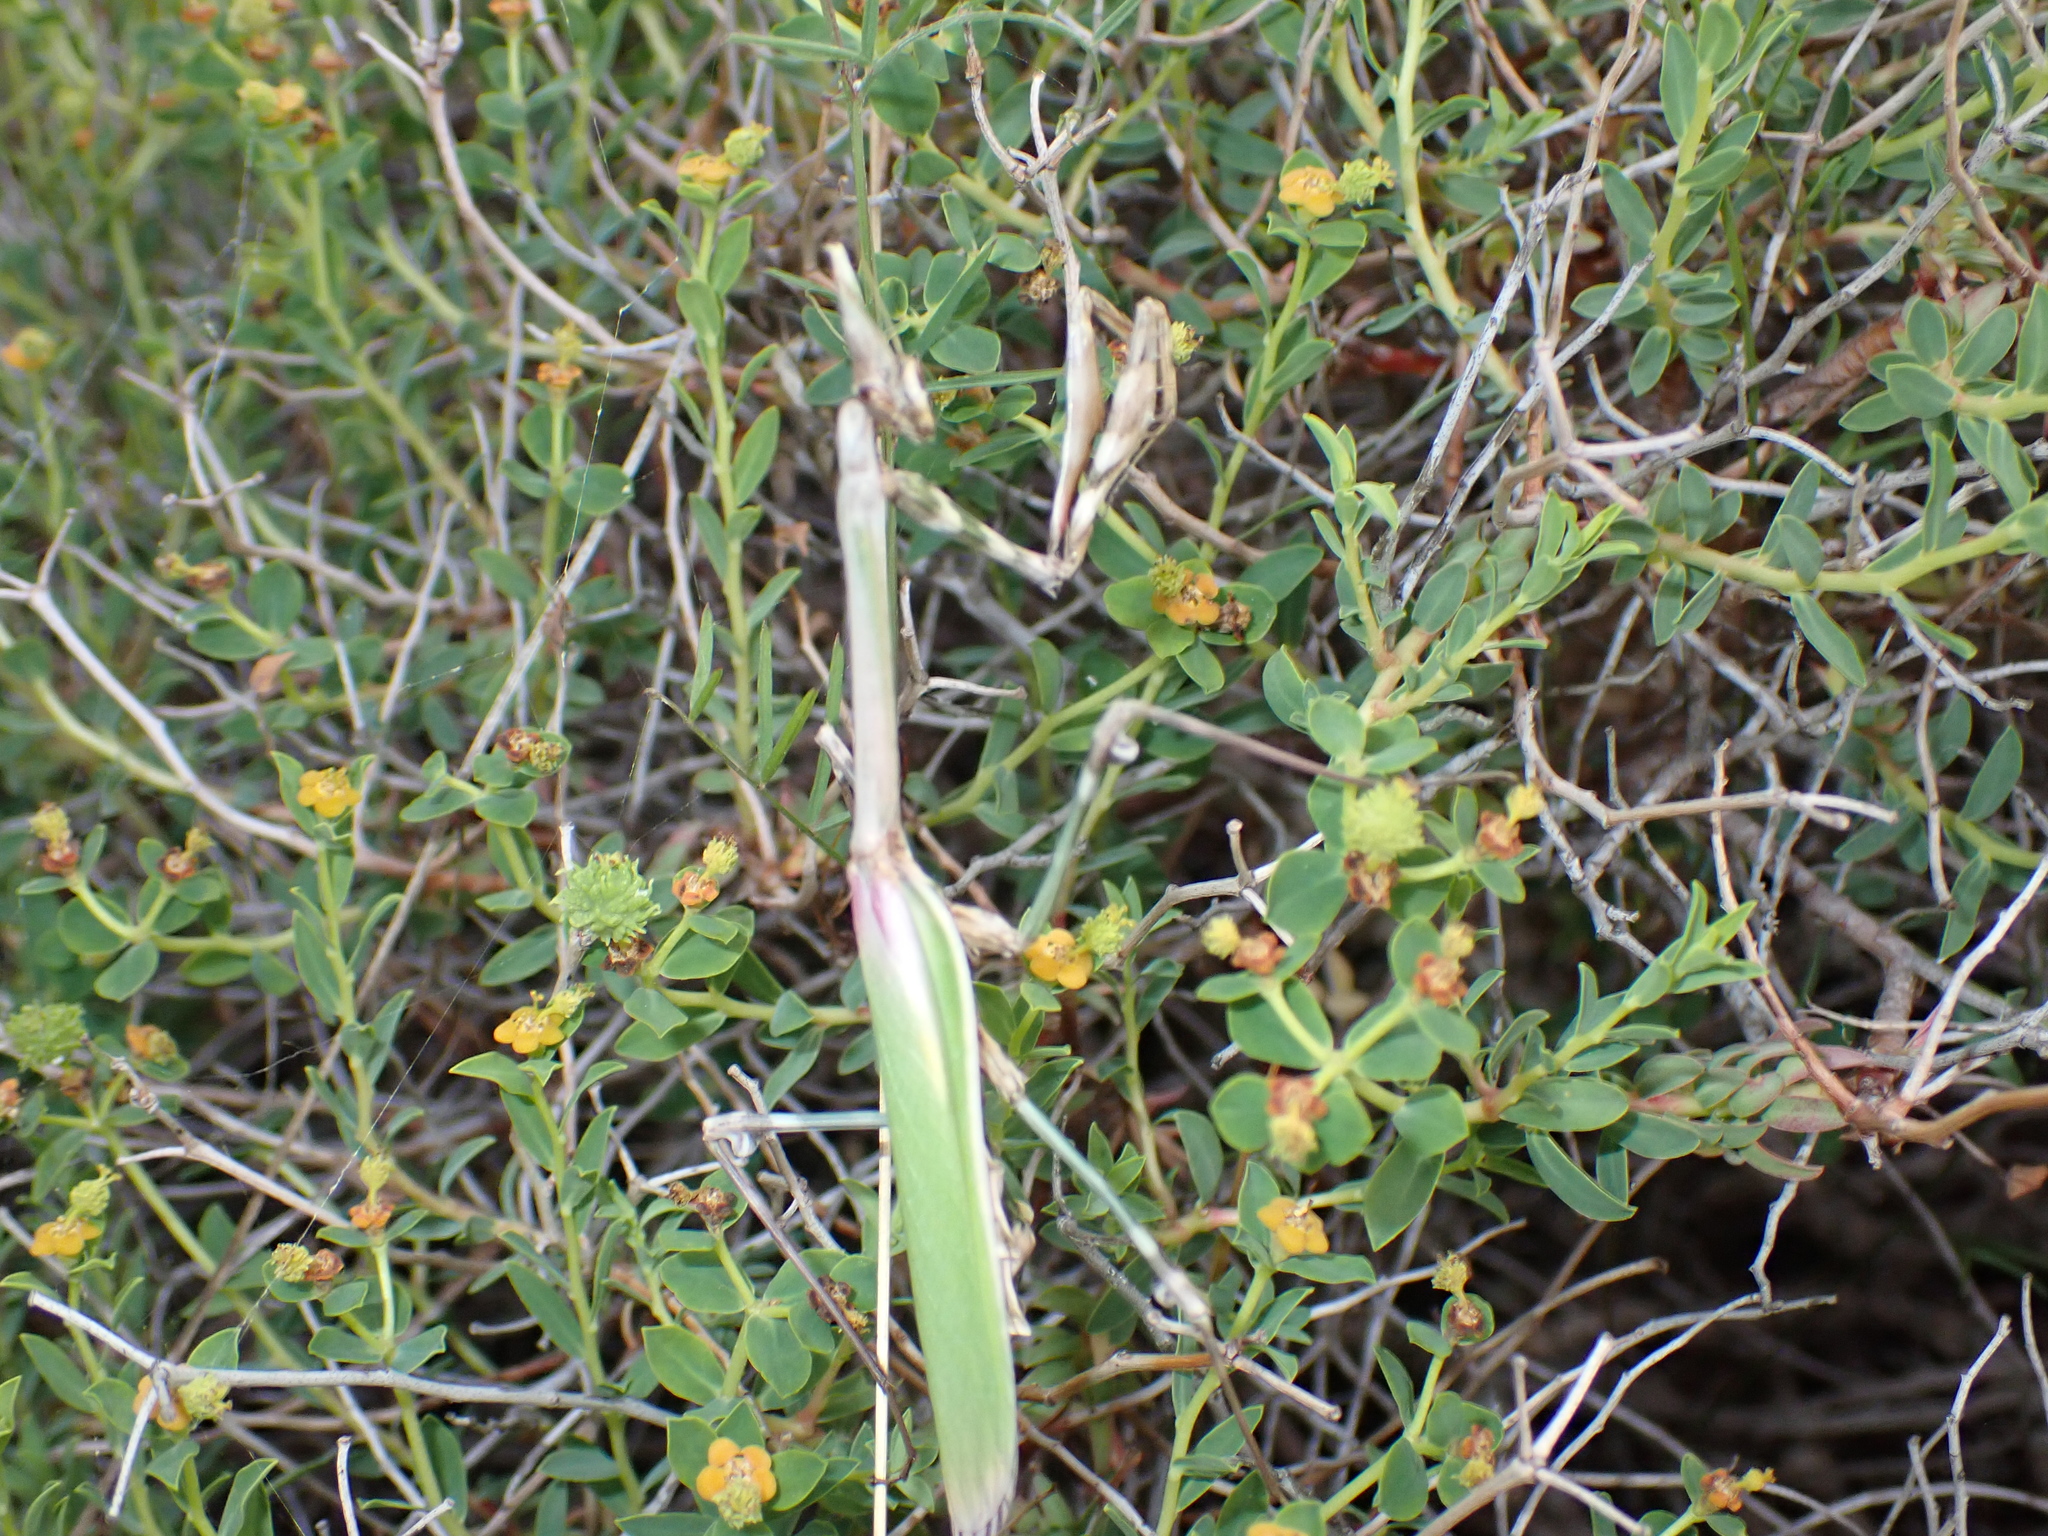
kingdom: Animalia
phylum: Arthropoda
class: Insecta
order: Mantodea
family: Empusidae
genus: Empusa
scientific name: Empusa pennata
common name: Conehead mantis
